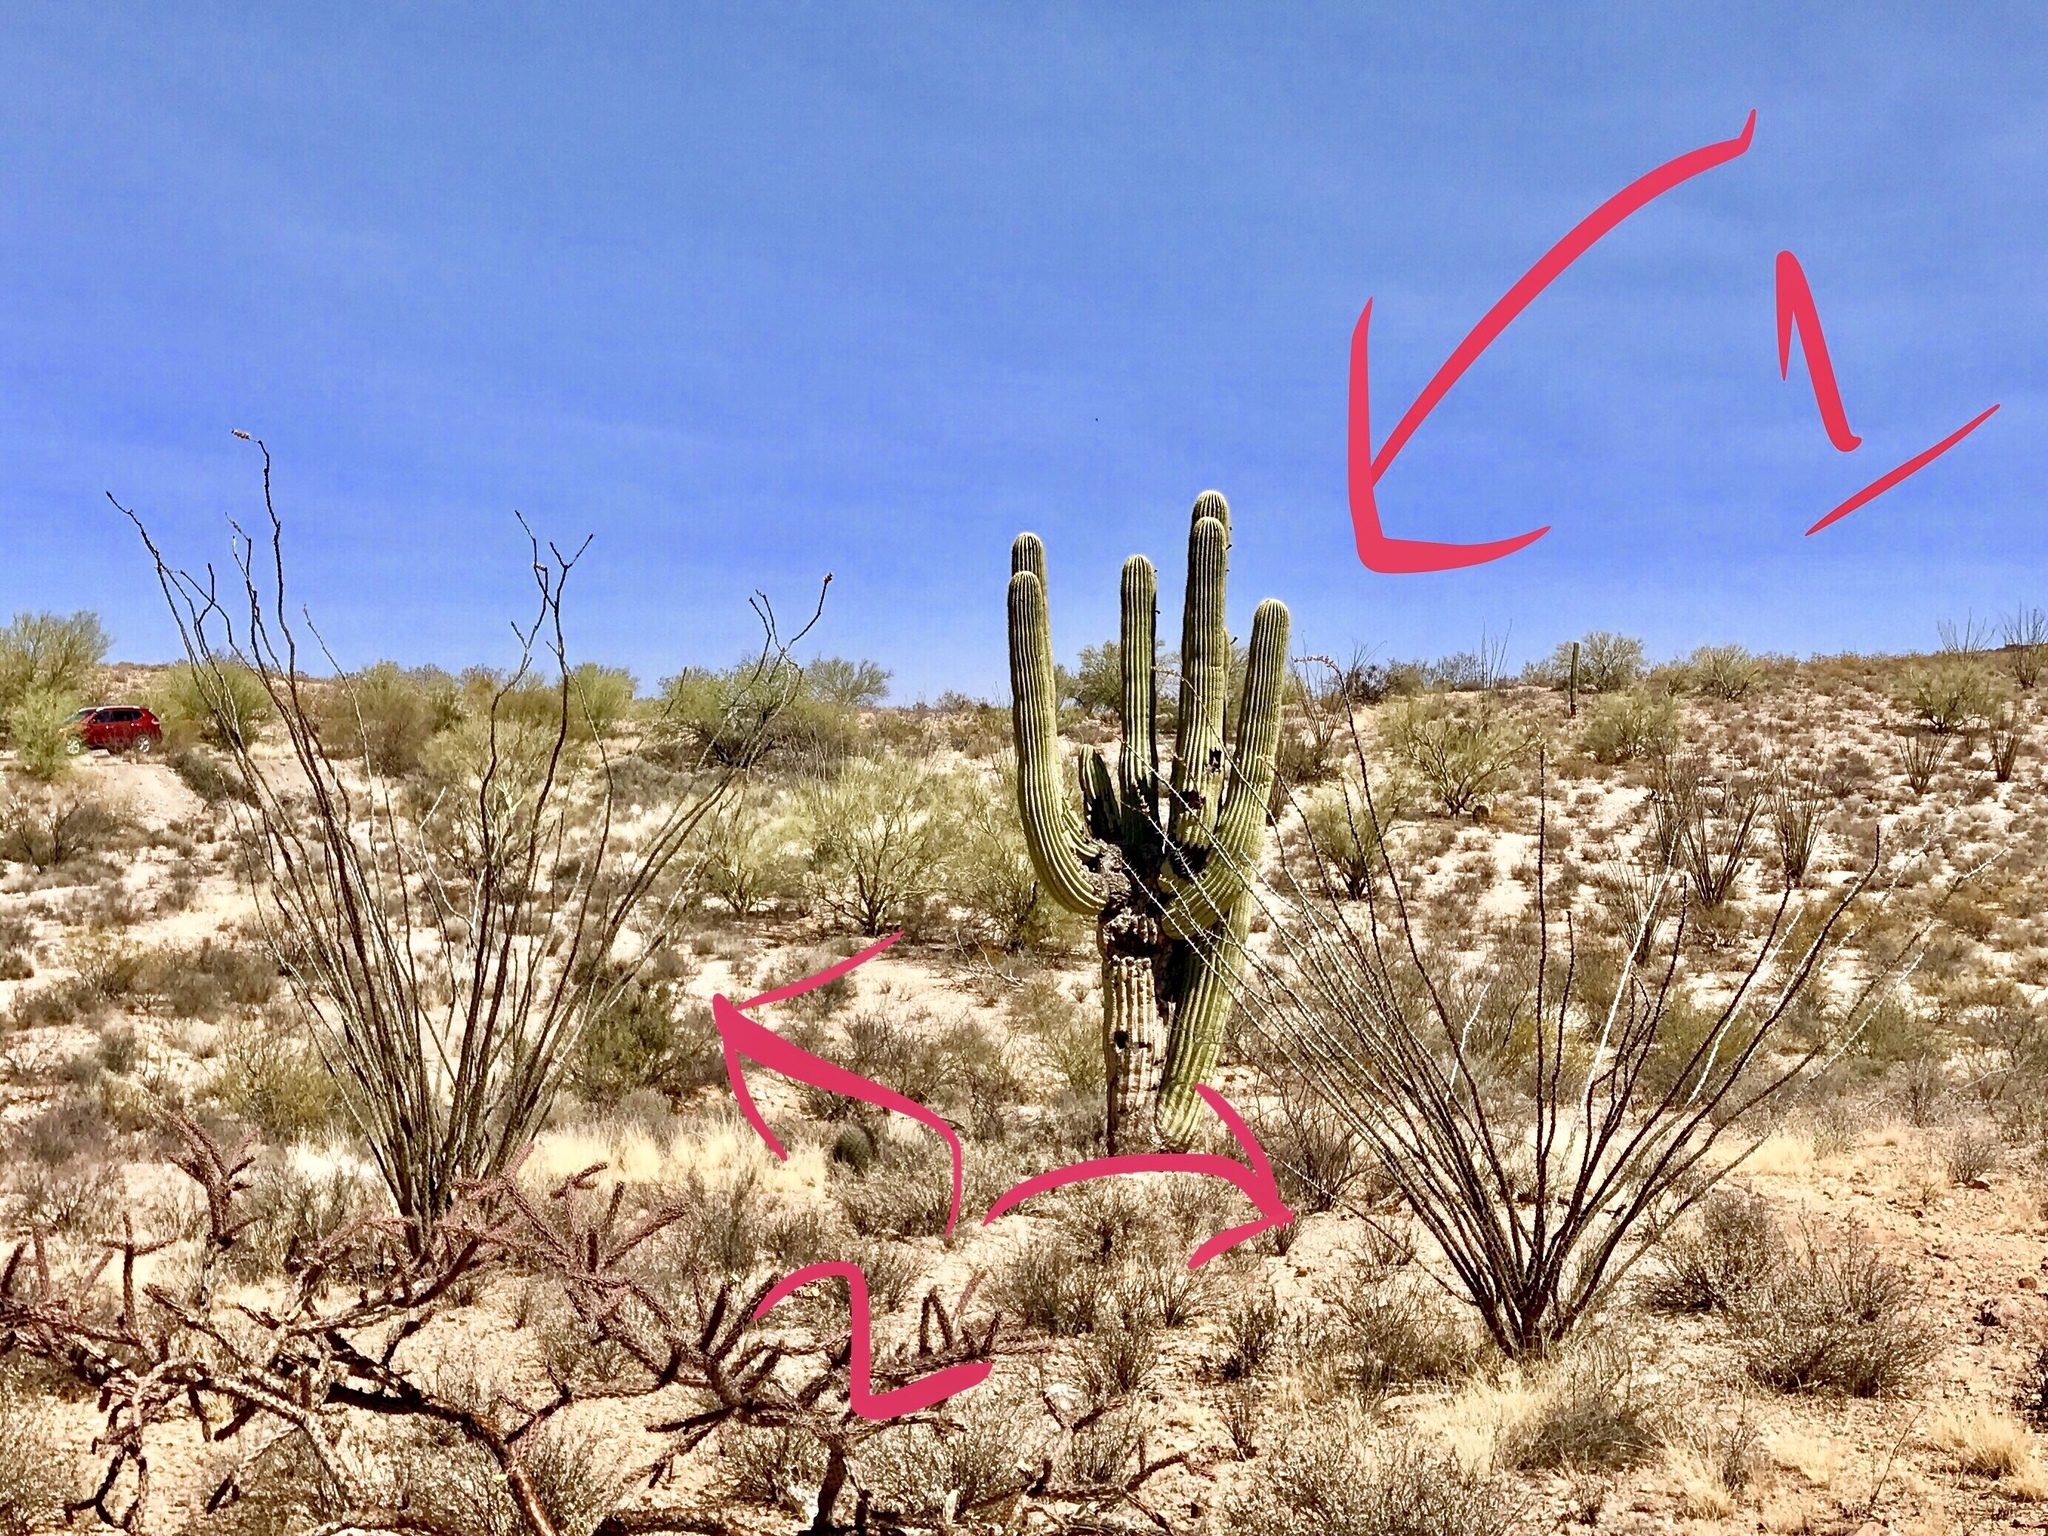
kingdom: Plantae
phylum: Tracheophyta
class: Magnoliopsida
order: Ericales
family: Fouquieriaceae
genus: Fouquieria
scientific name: Fouquieria splendens
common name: Vine-cactus
